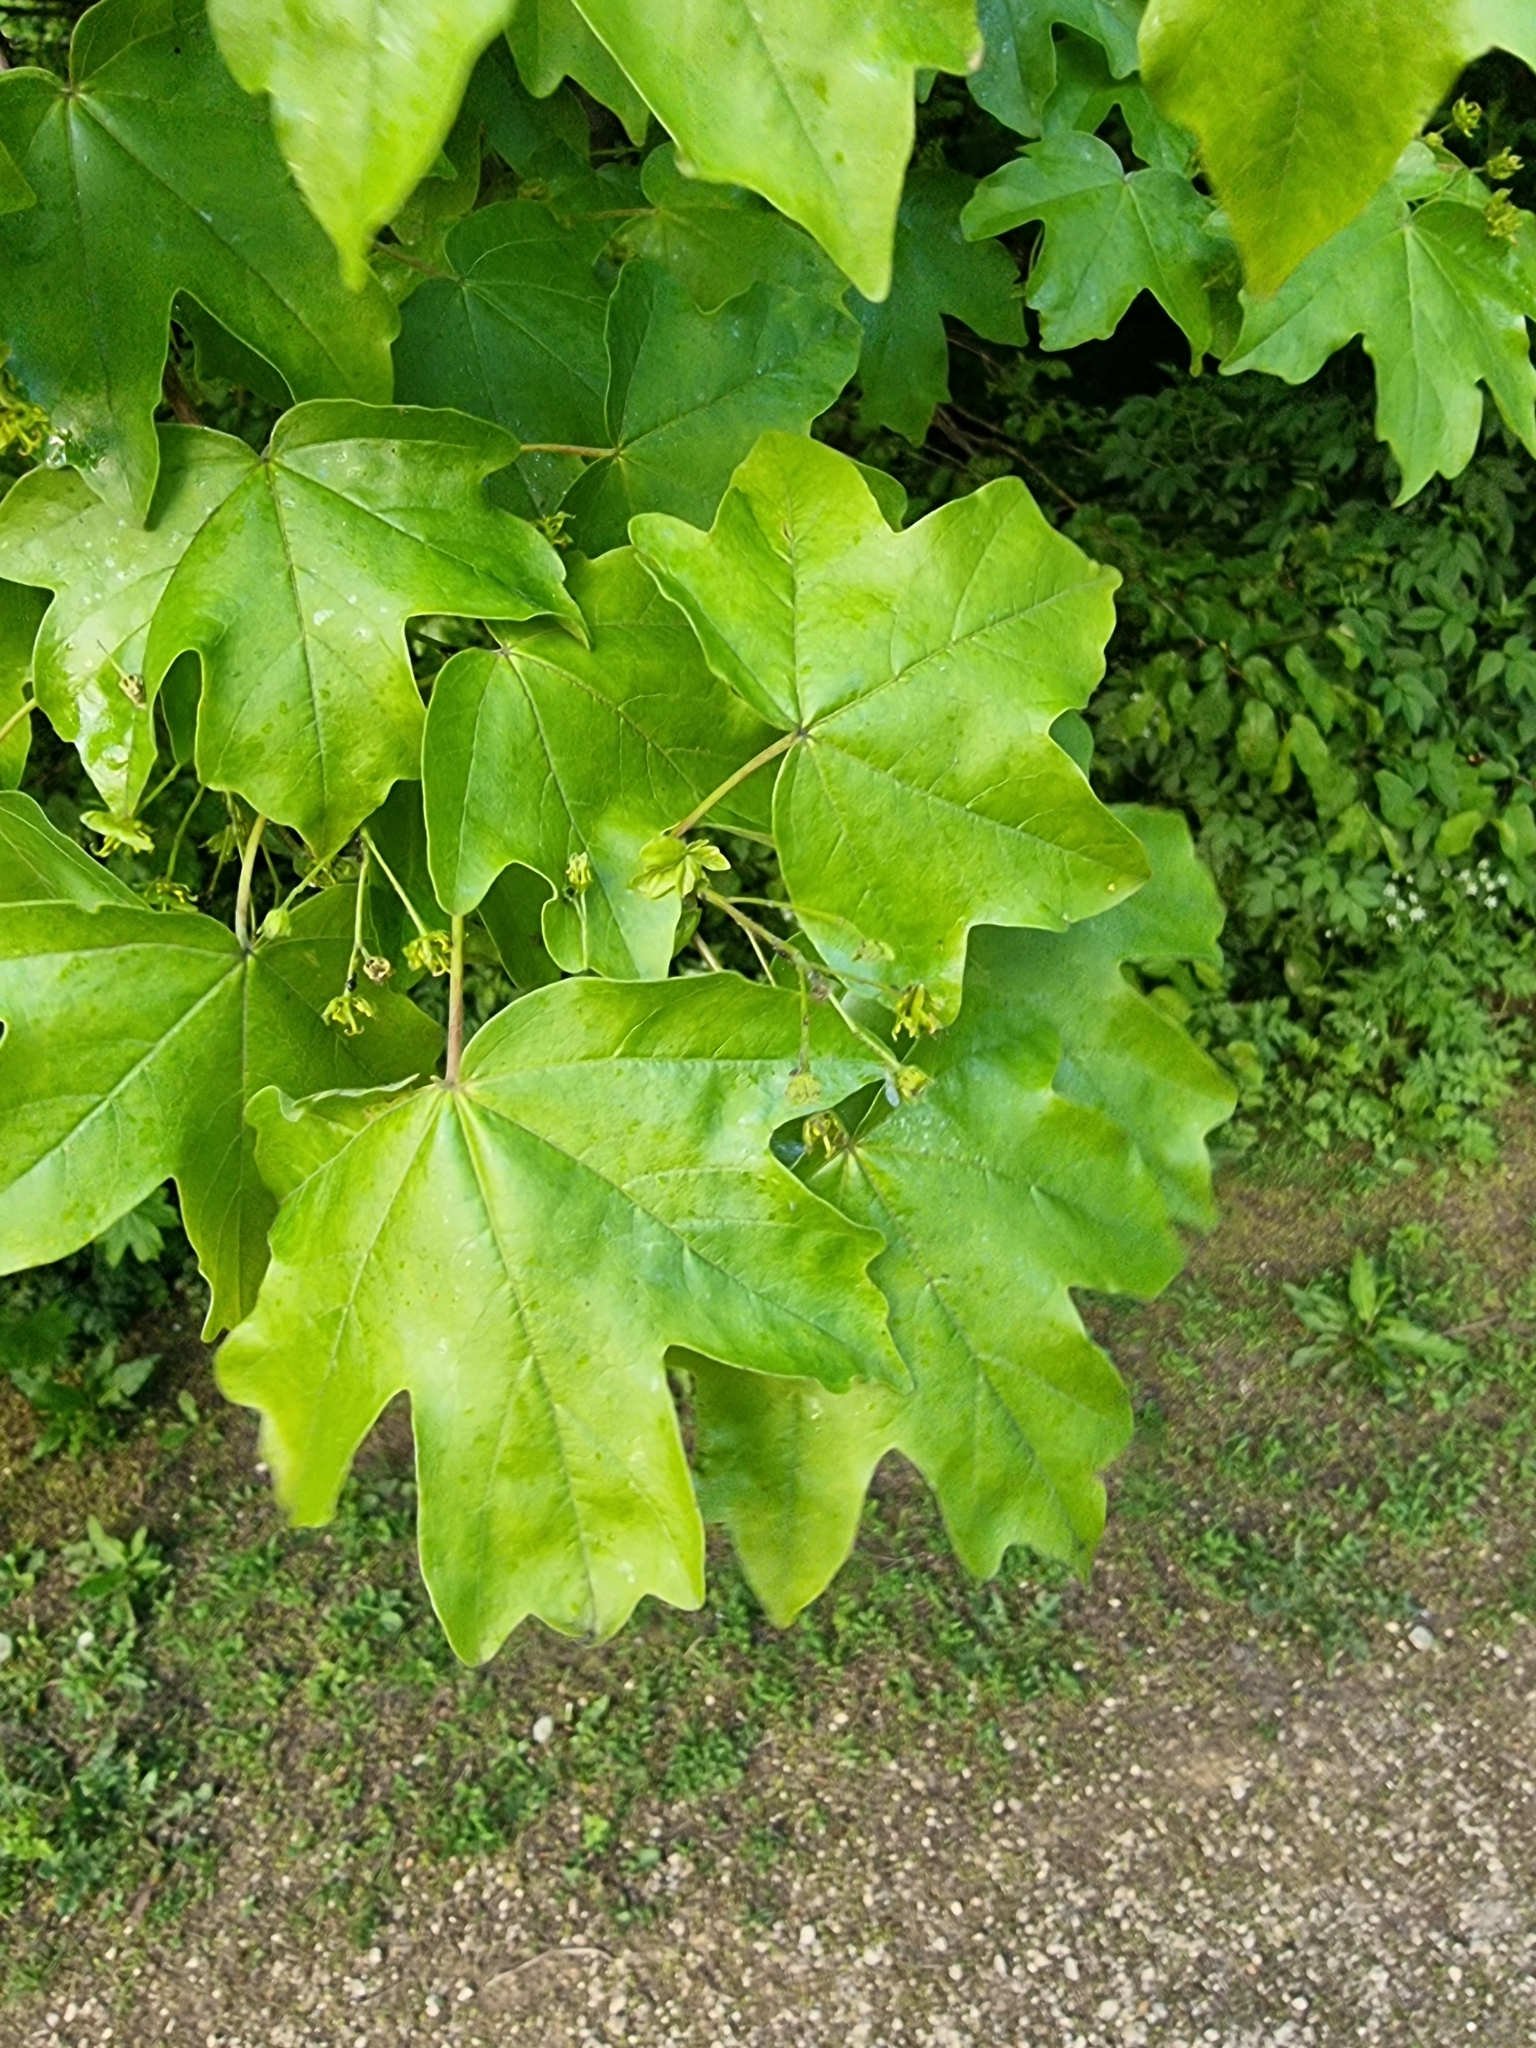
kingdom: Plantae
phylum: Tracheophyta
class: Magnoliopsida
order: Sapindales
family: Sapindaceae
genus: Acer
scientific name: Acer campestre
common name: Field maple
